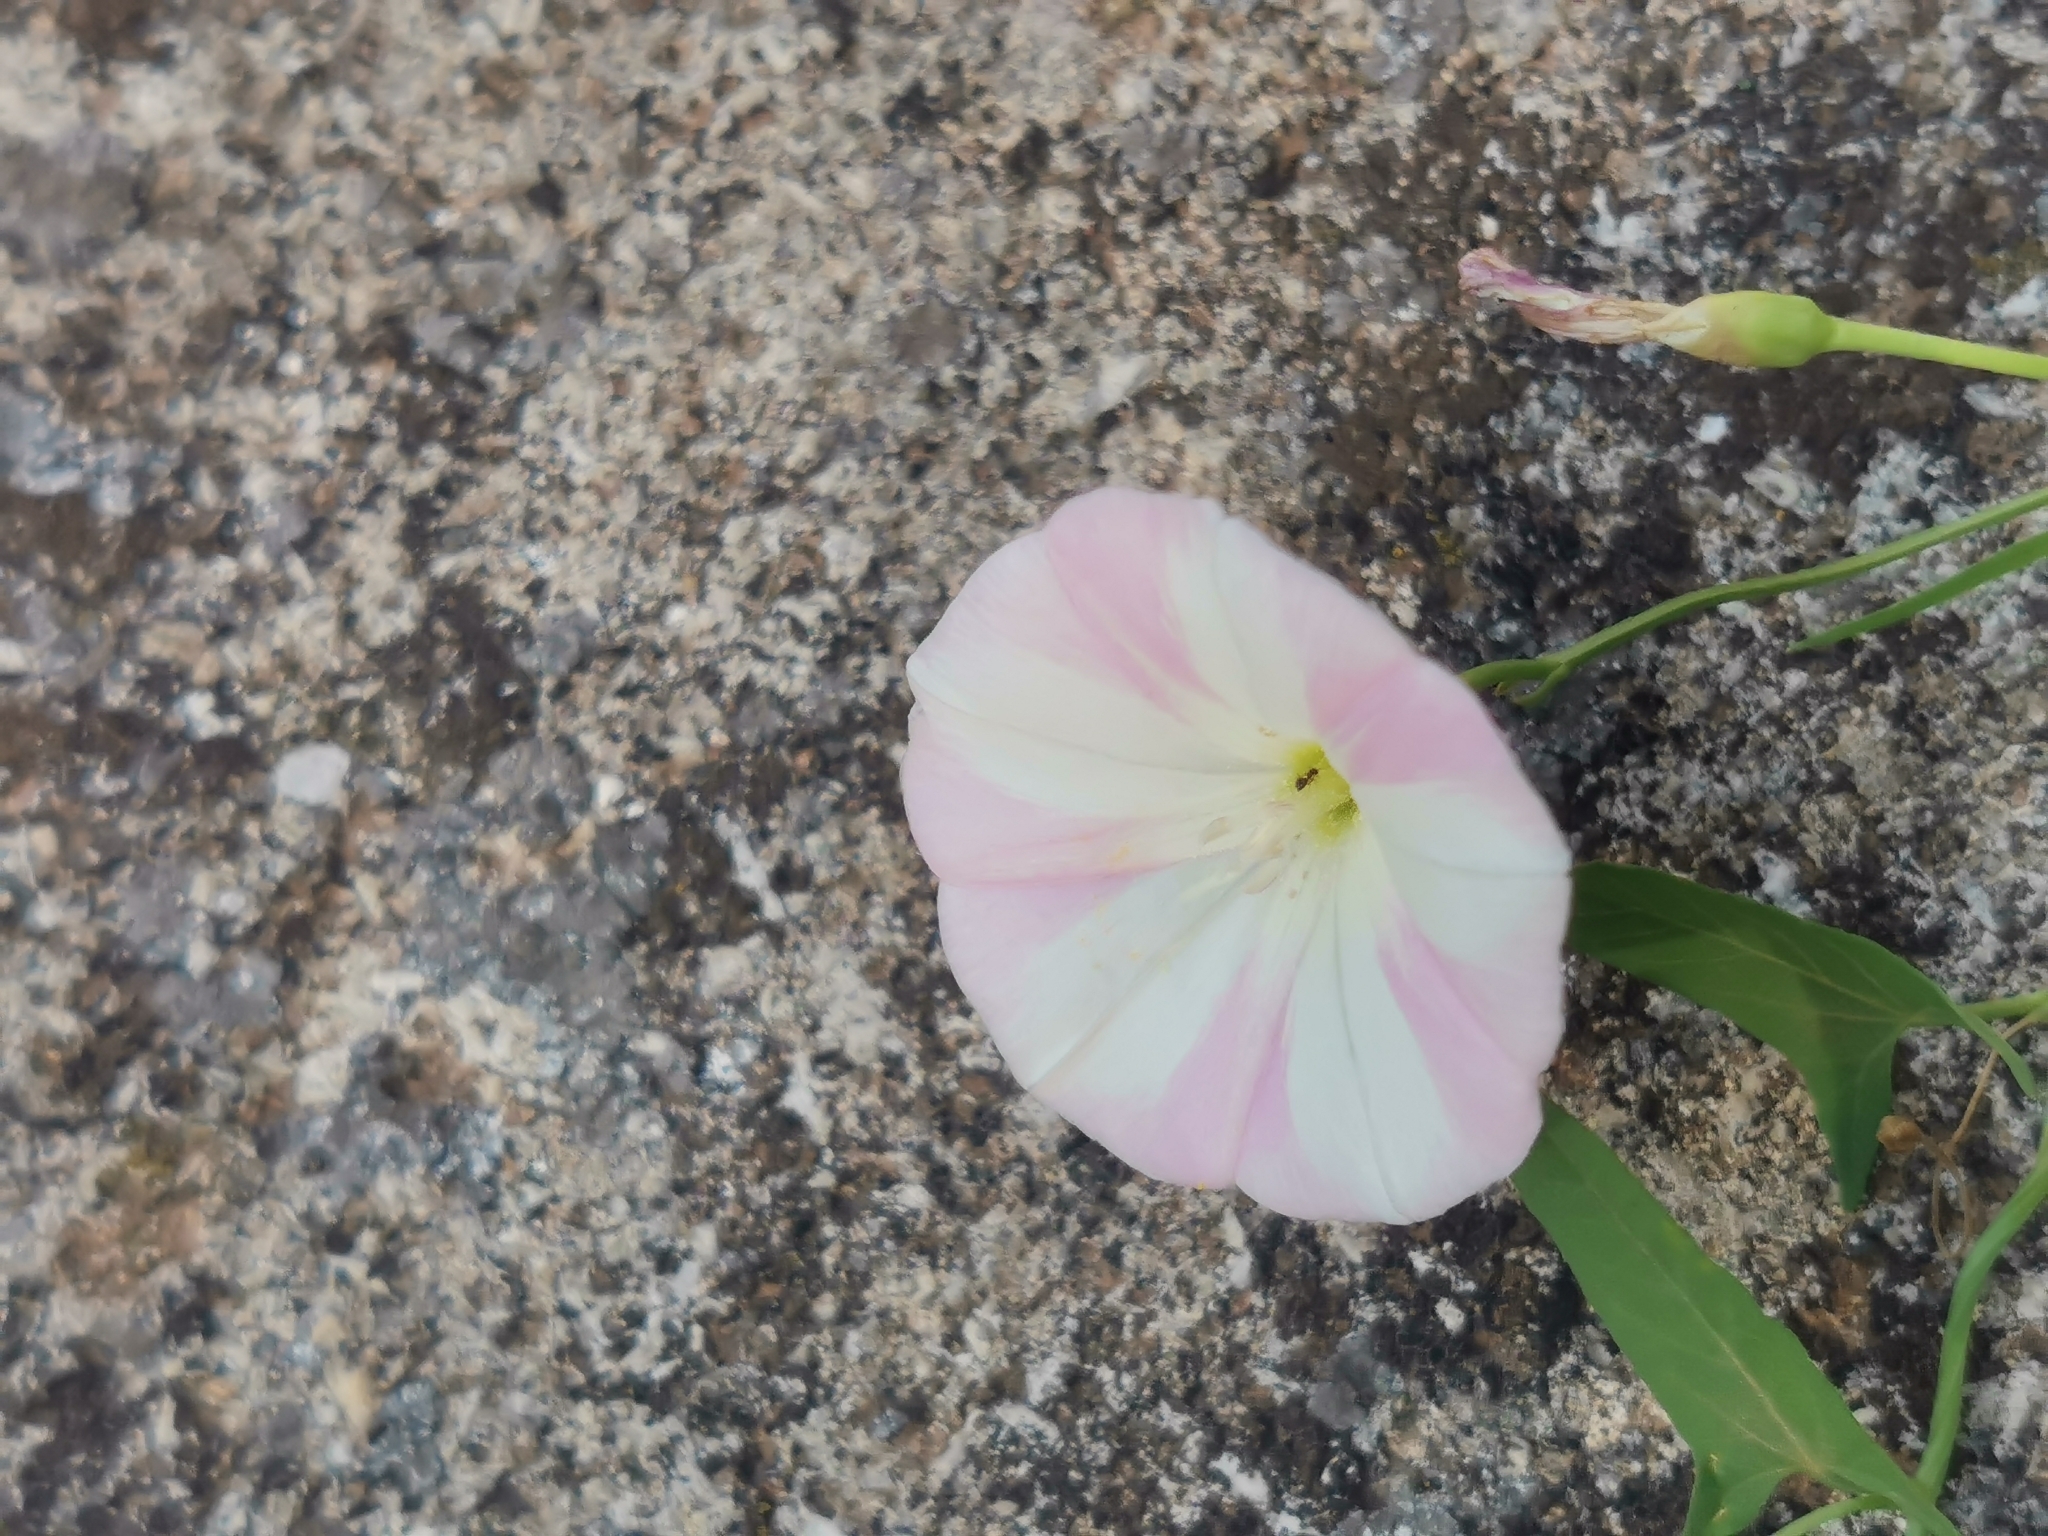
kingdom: Plantae
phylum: Tracheophyta
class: Magnoliopsida
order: Solanales
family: Convolvulaceae
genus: Convolvulus
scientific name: Convolvulus arvensis
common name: Field bindweed
